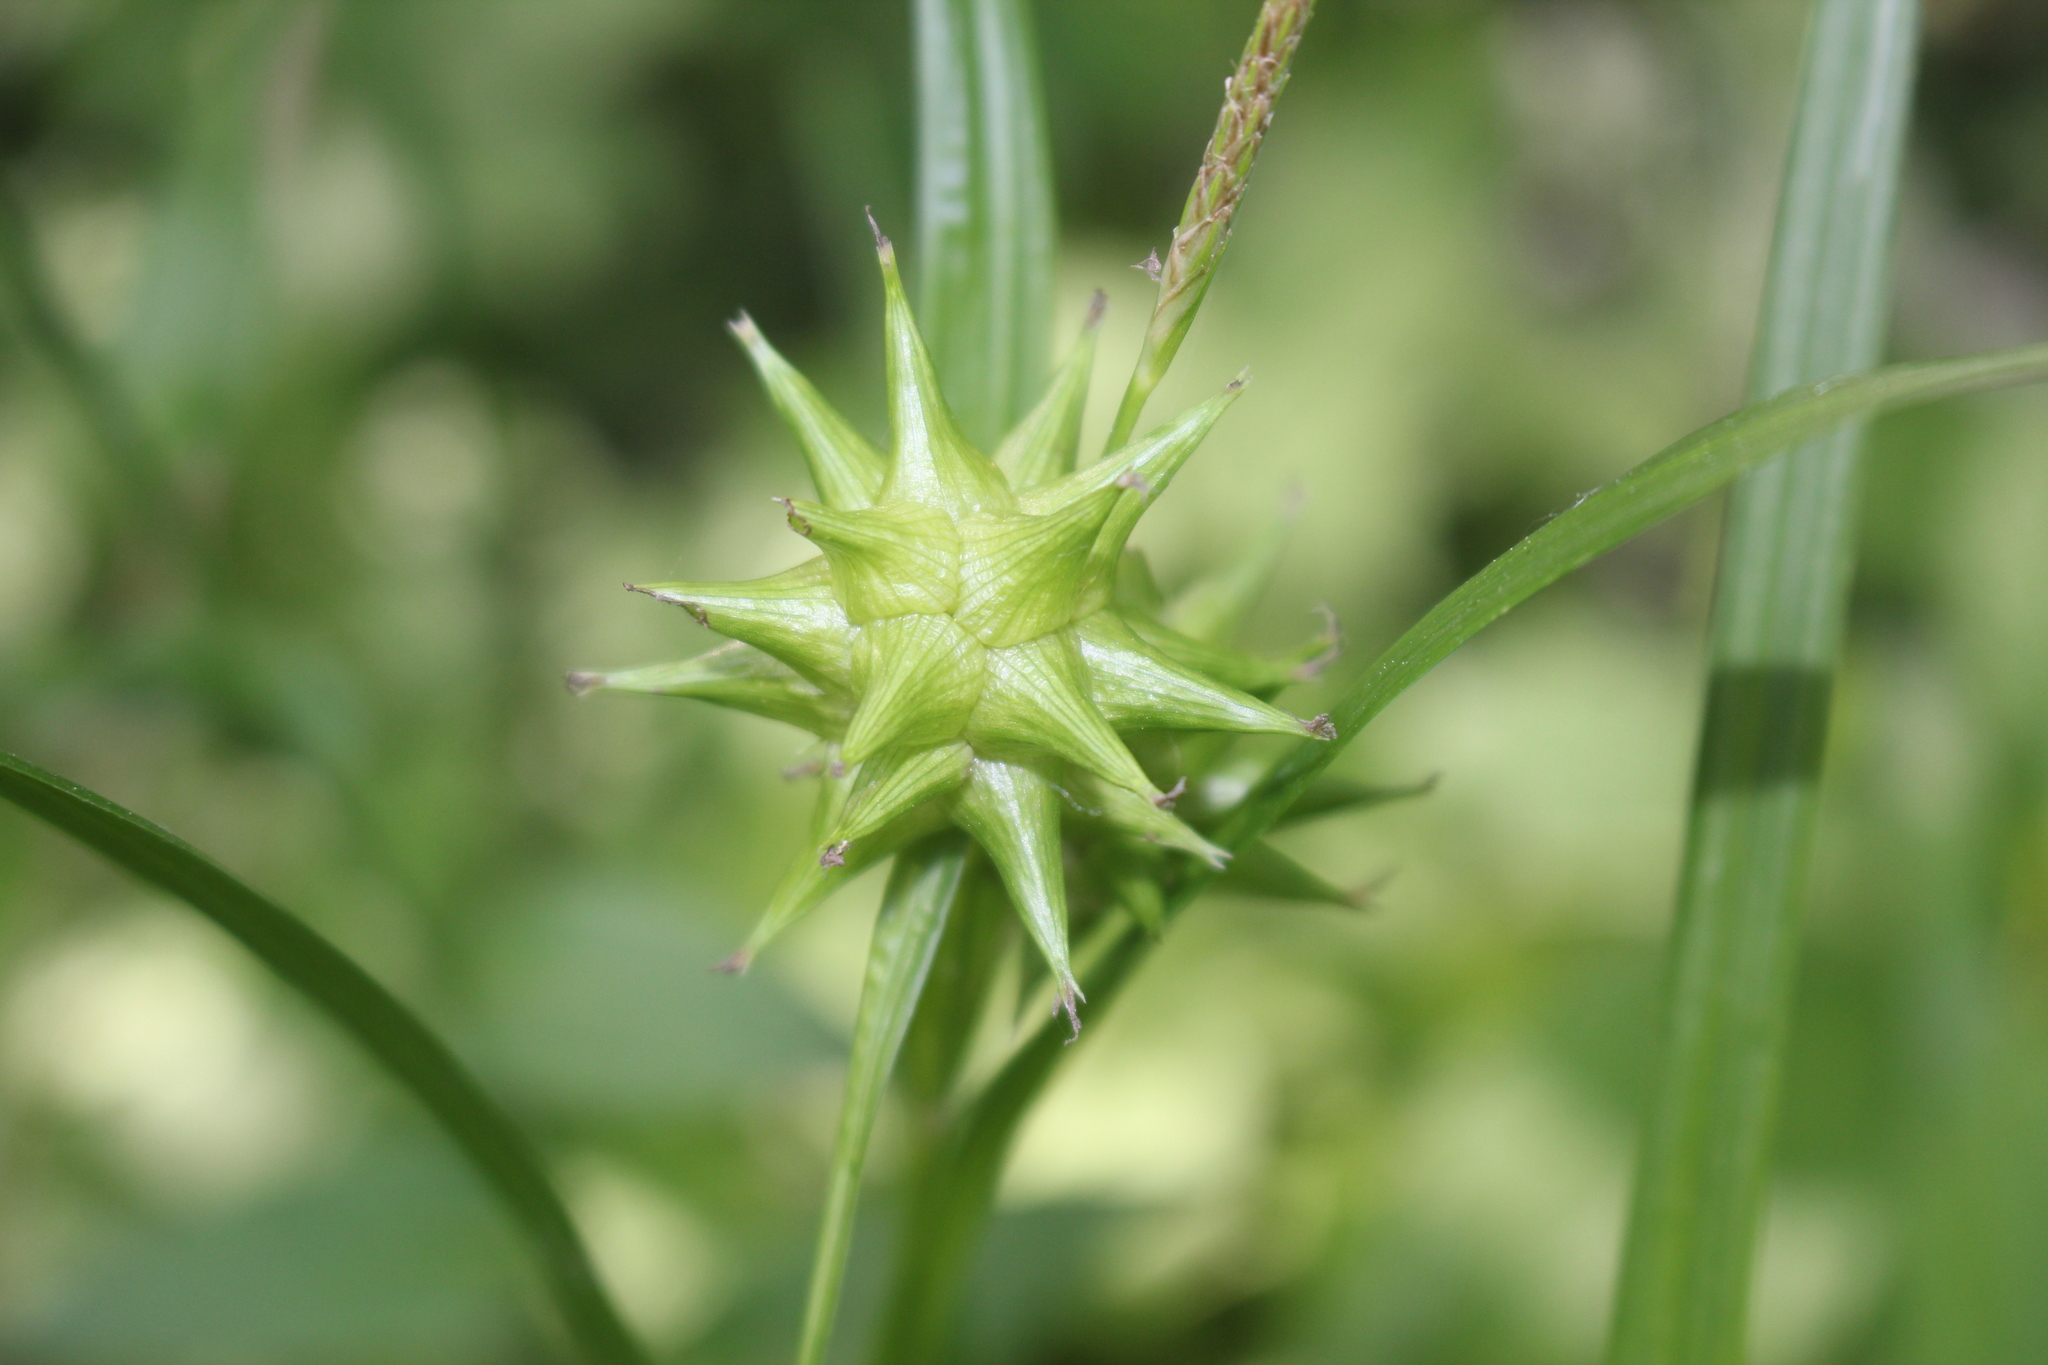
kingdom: Plantae
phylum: Tracheophyta
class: Liliopsida
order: Poales
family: Cyperaceae
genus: Carex
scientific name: Carex grayi
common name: Asa gray's sedge
